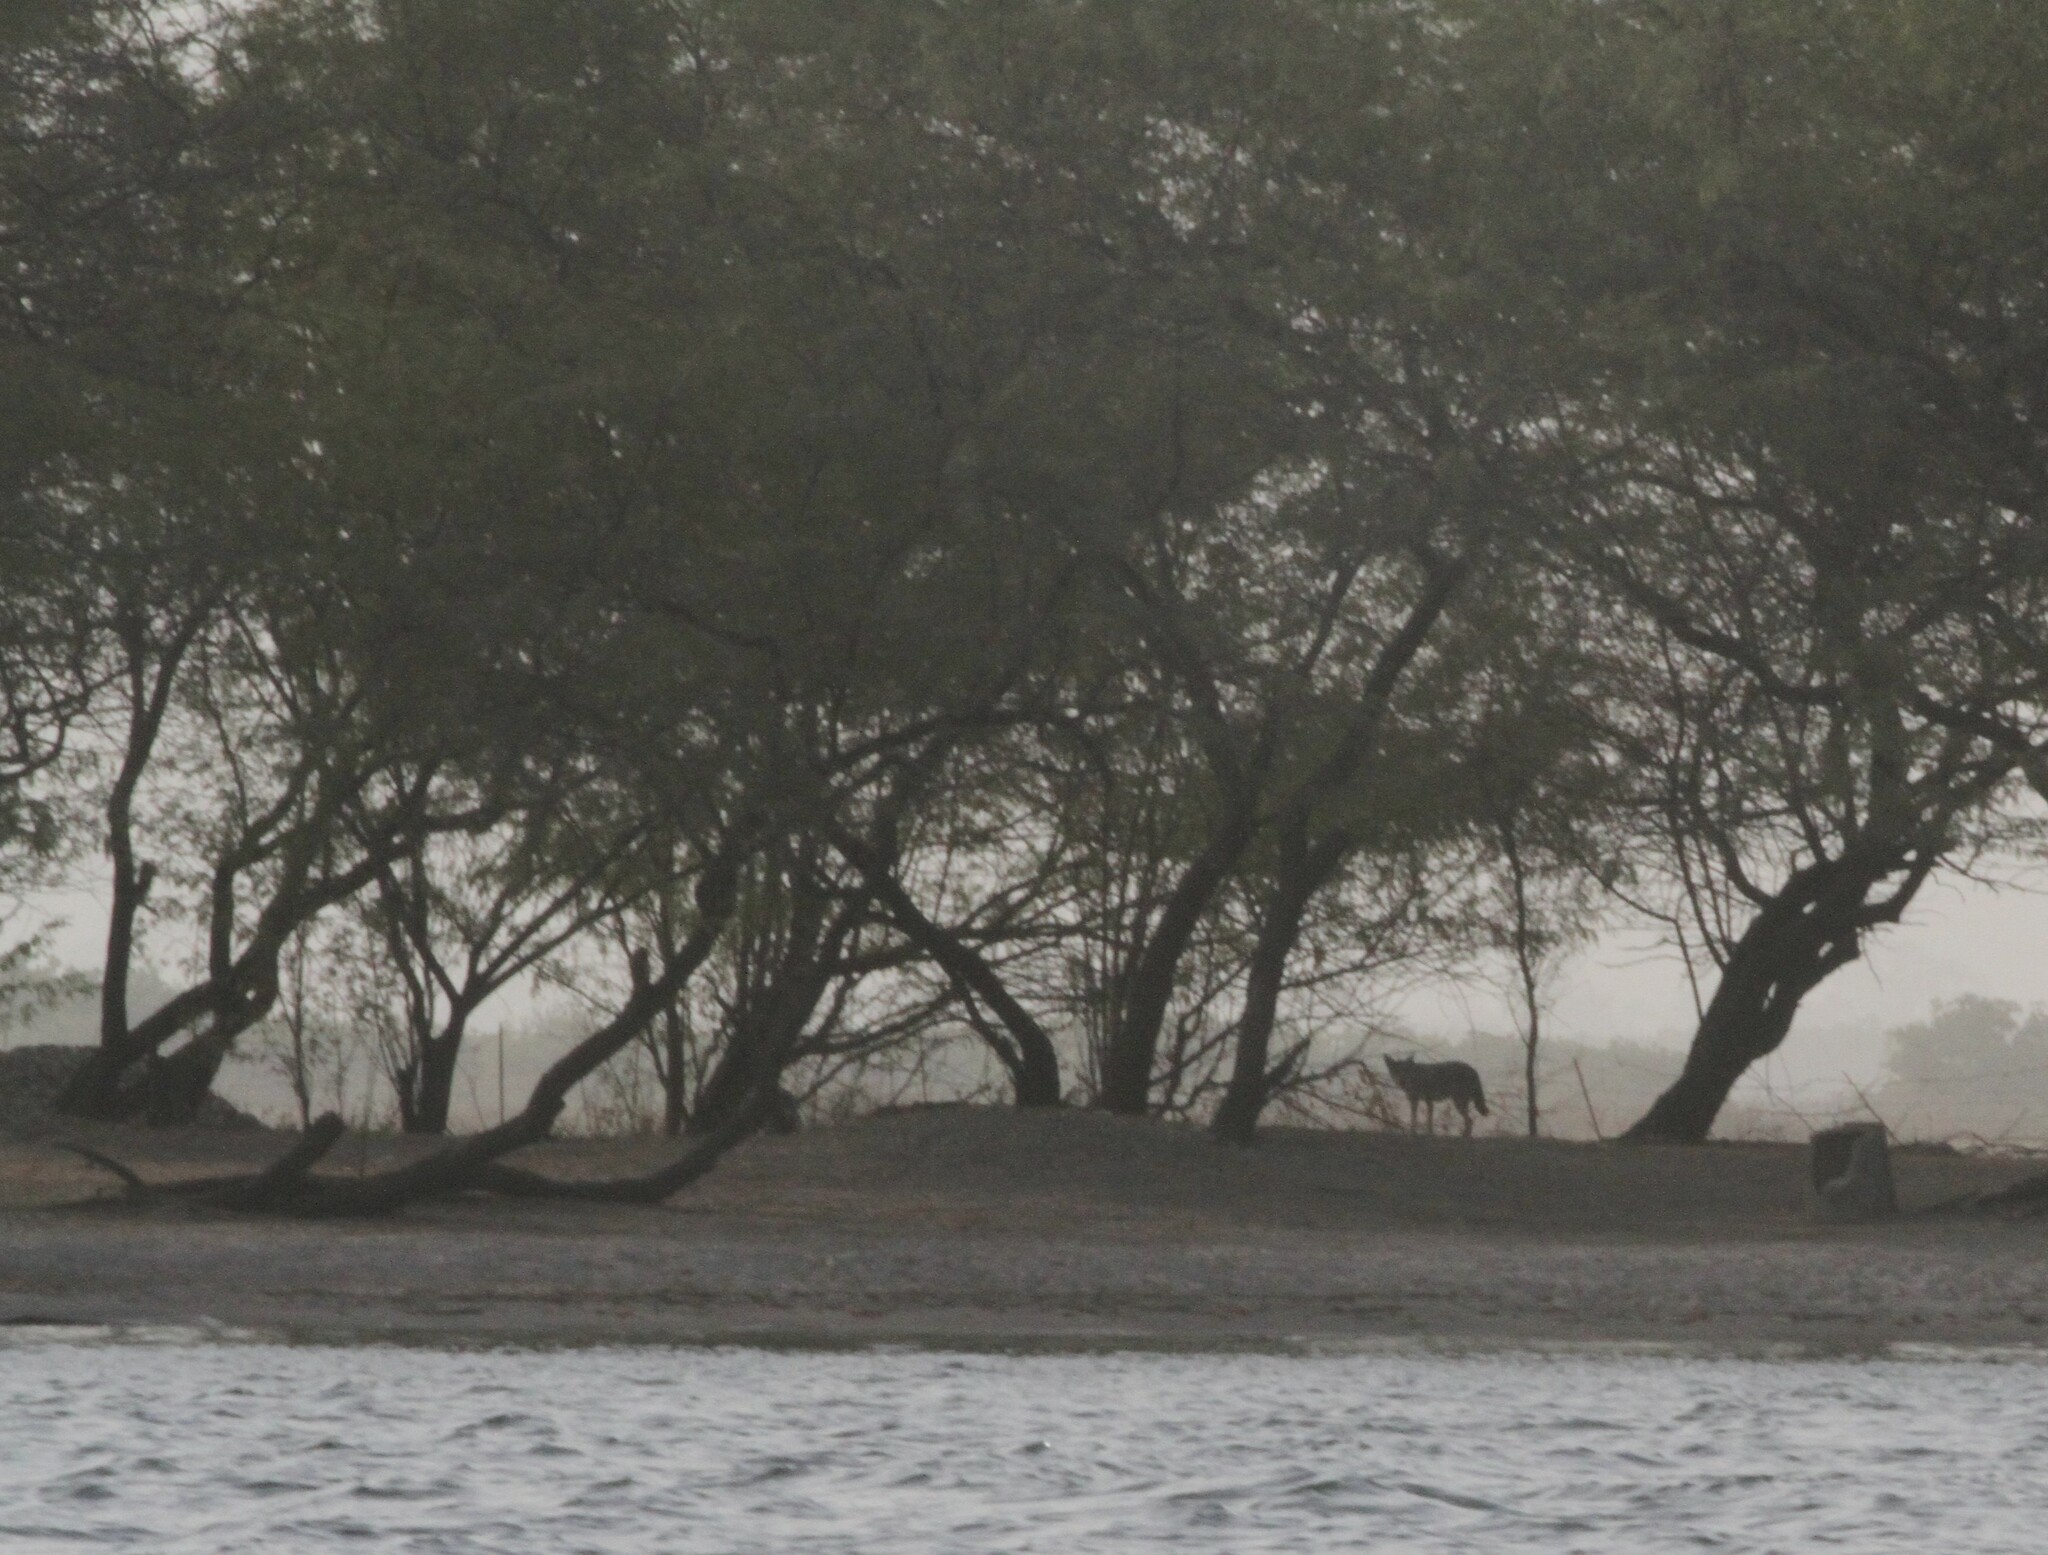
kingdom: Animalia
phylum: Chordata
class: Mammalia
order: Carnivora
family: Canidae
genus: Canis
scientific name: Canis lupaster
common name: African golden wolf
